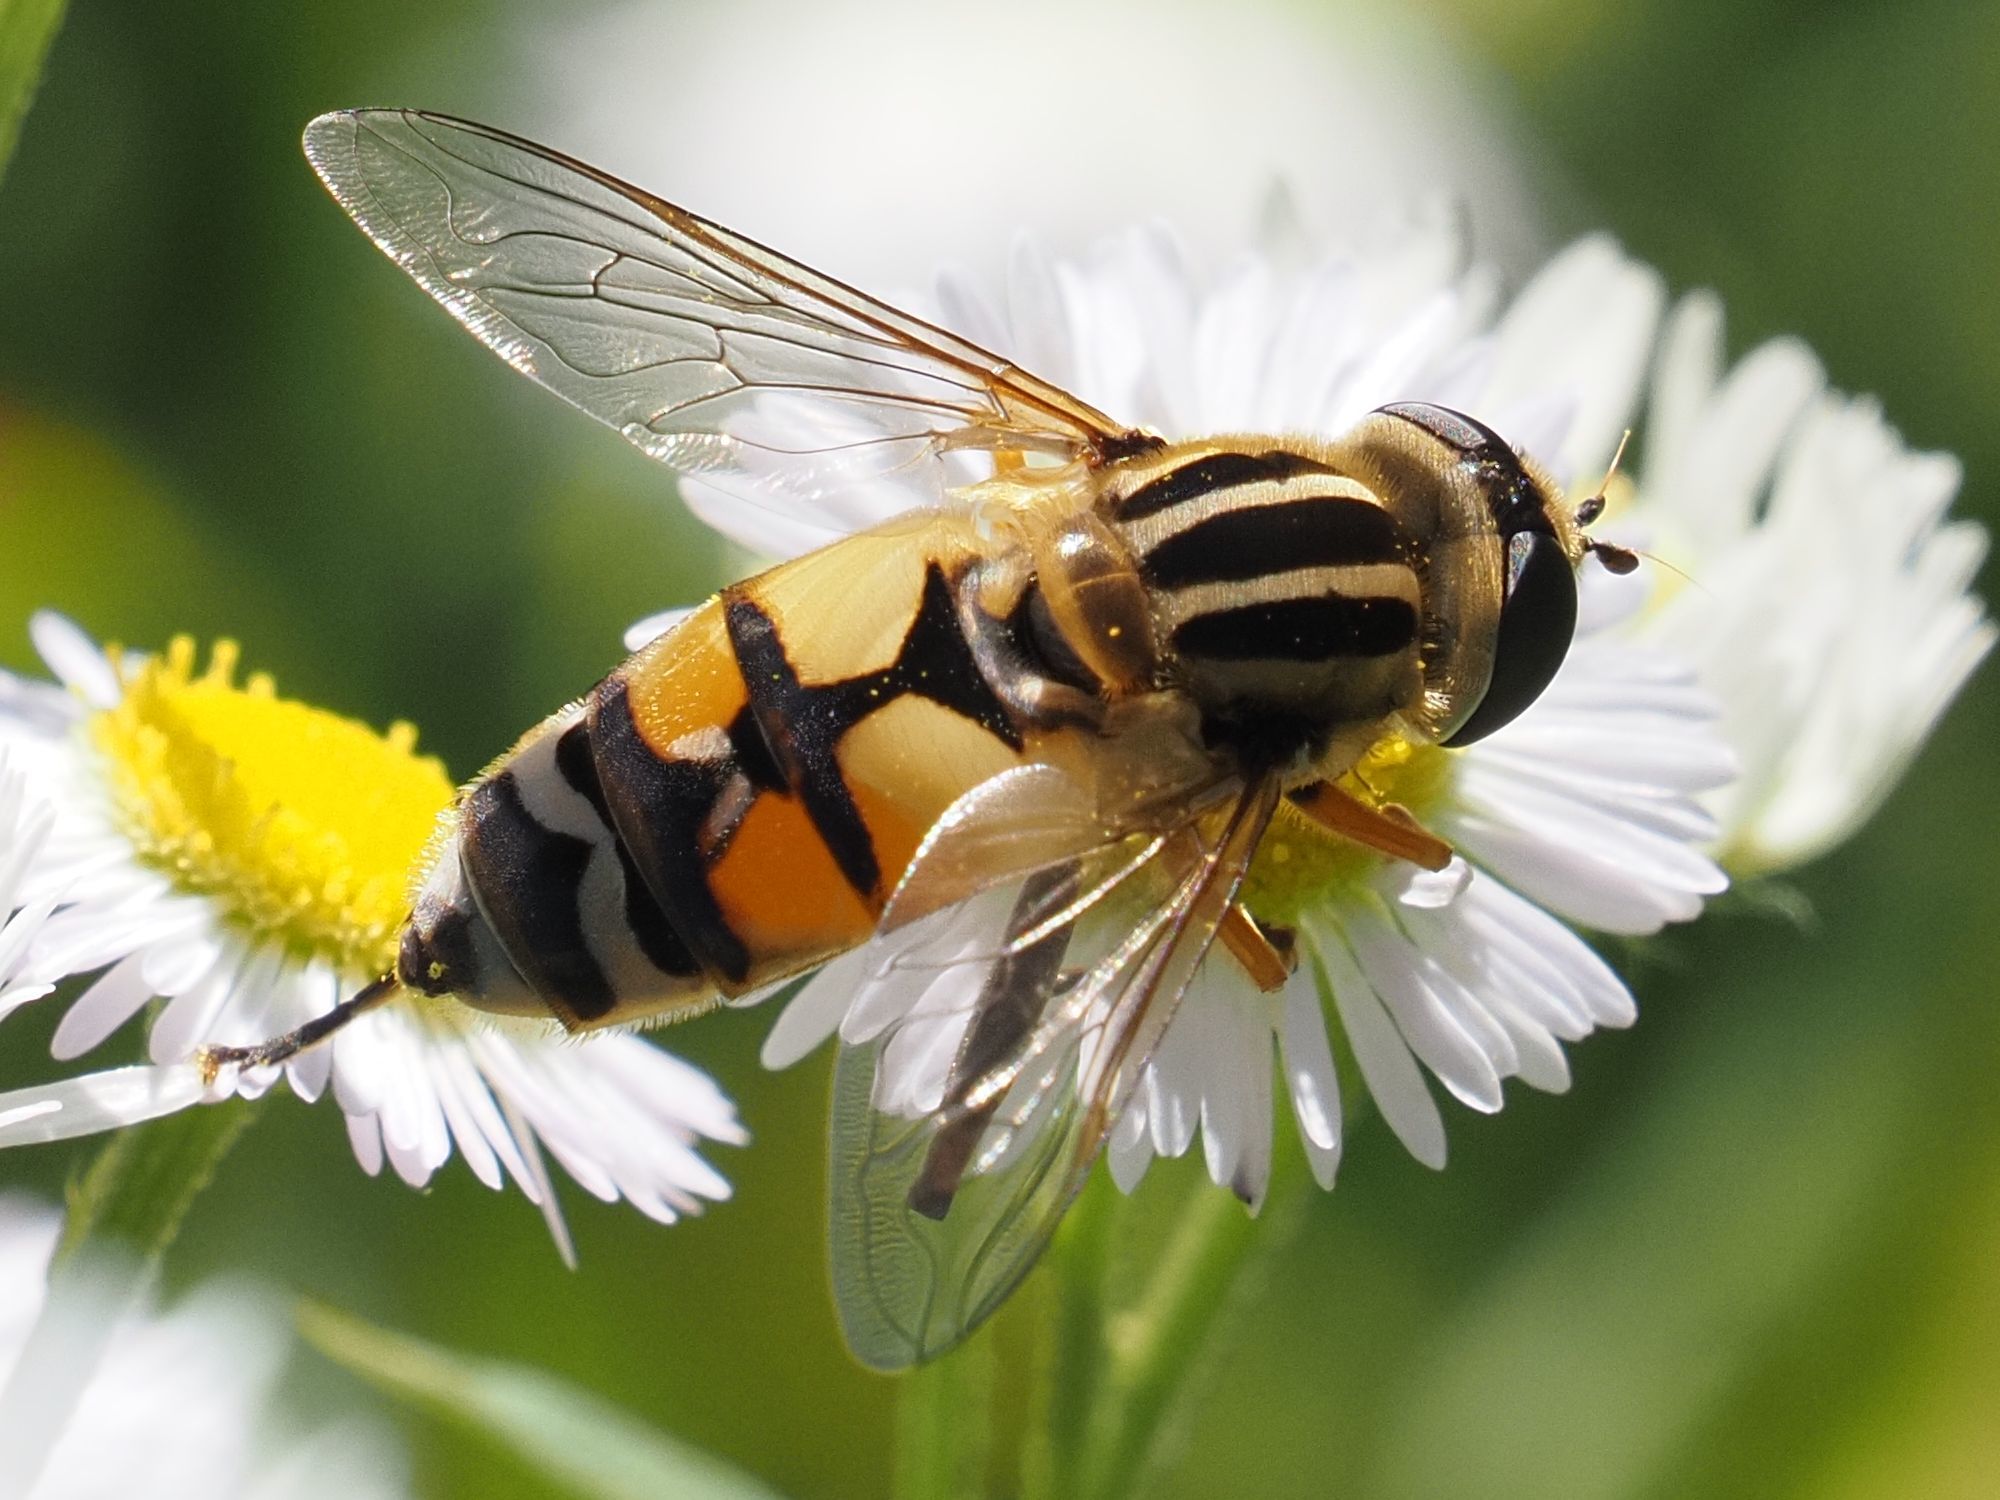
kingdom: Animalia
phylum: Arthropoda
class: Insecta
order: Diptera
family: Syrphidae
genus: Helophilus
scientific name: Helophilus trivittatus
